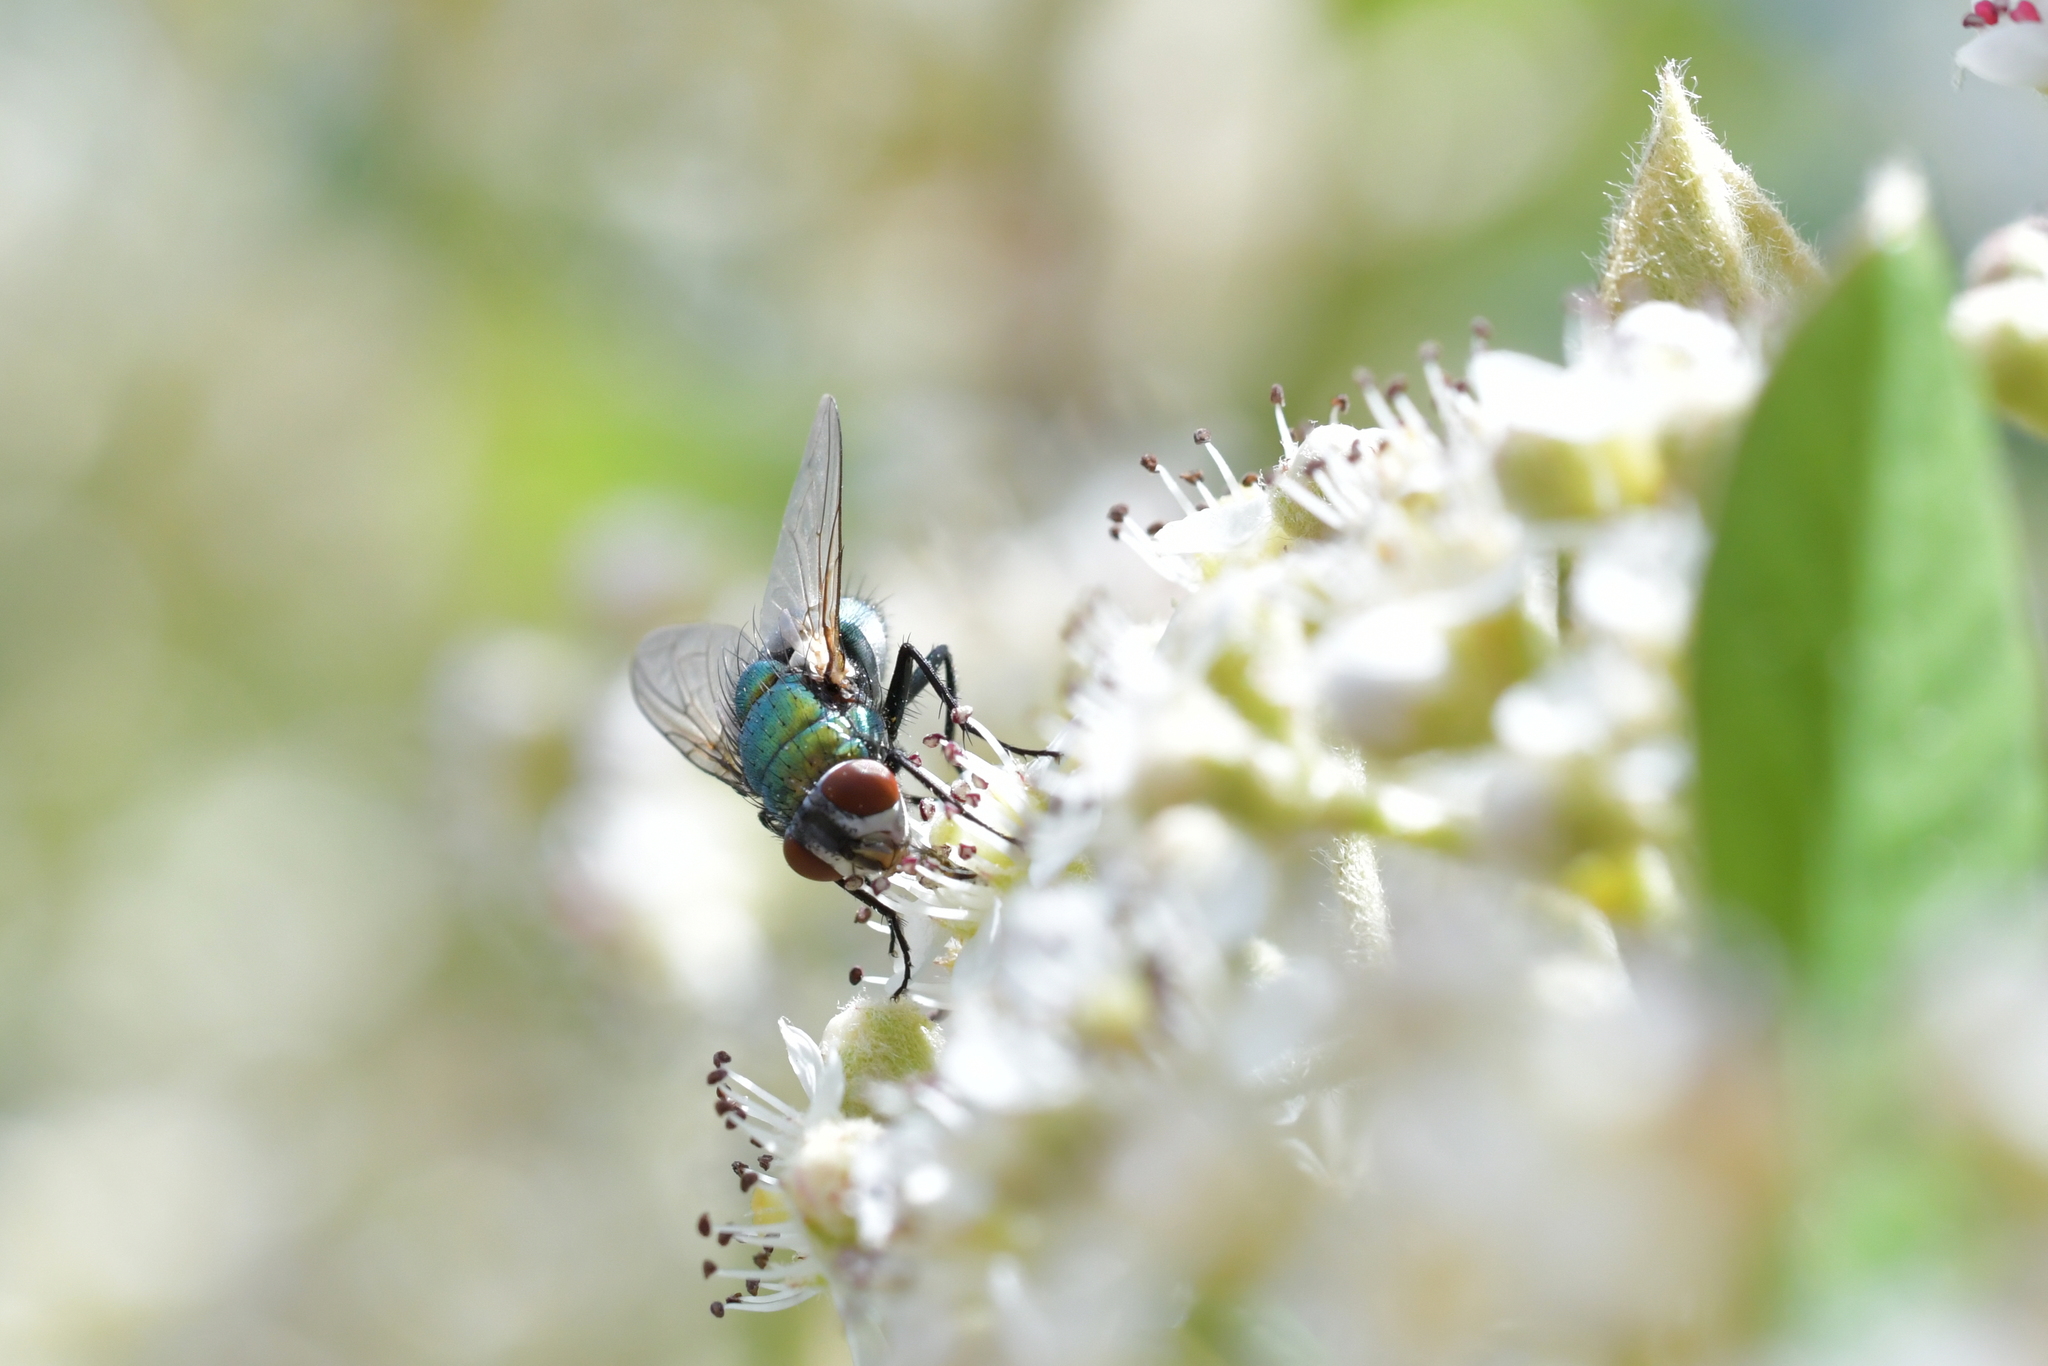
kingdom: Animalia
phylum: Arthropoda
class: Insecta
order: Diptera
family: Calliphoridae
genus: Lucilia
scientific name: Lucilia sericata
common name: Blow fly
